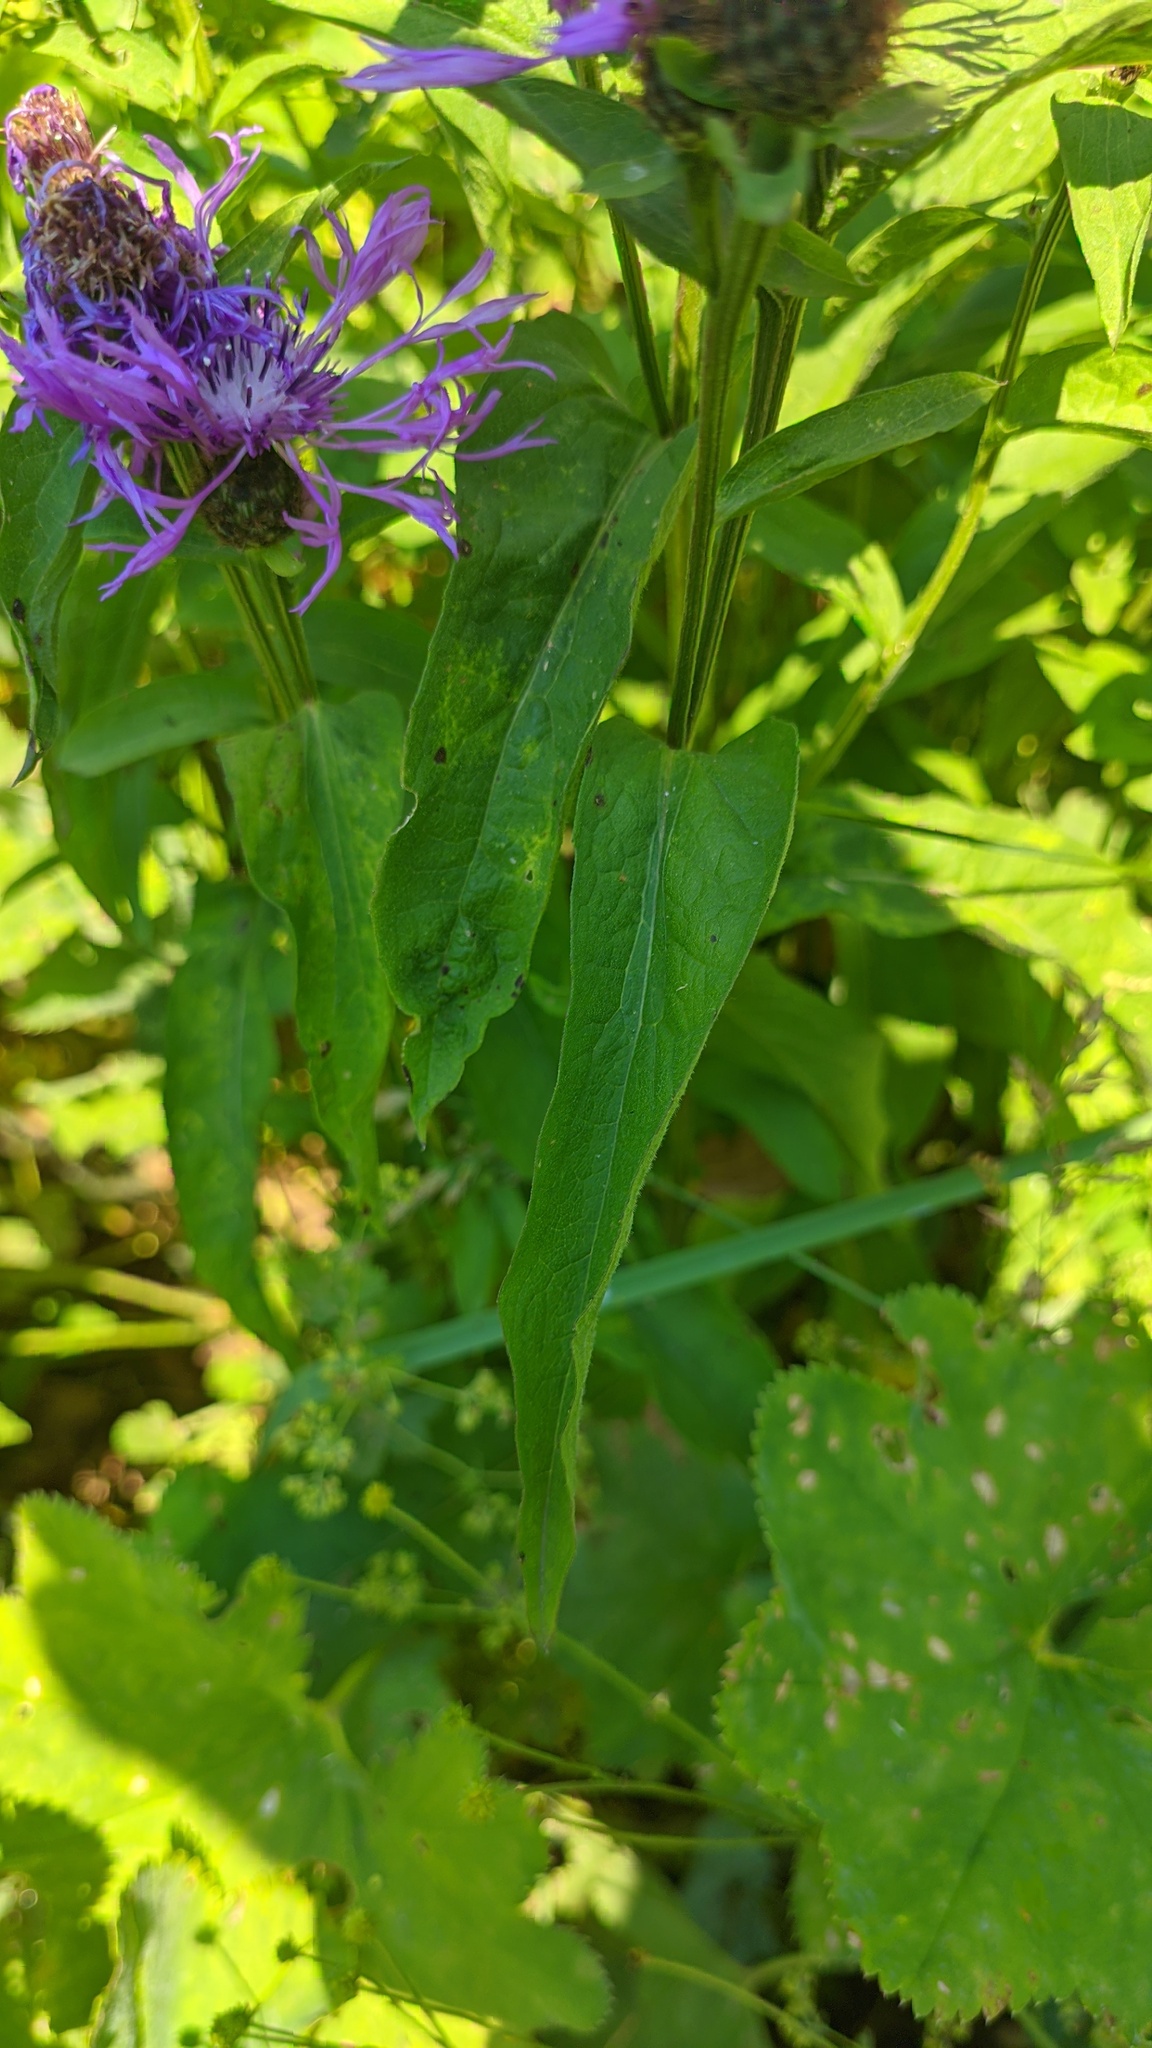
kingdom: Plantae
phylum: Tracheophyta
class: Magnoliopsida
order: Asterales
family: Asteraceae
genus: Centaurea
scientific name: Centaurea phrygia
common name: Wig knapweed
